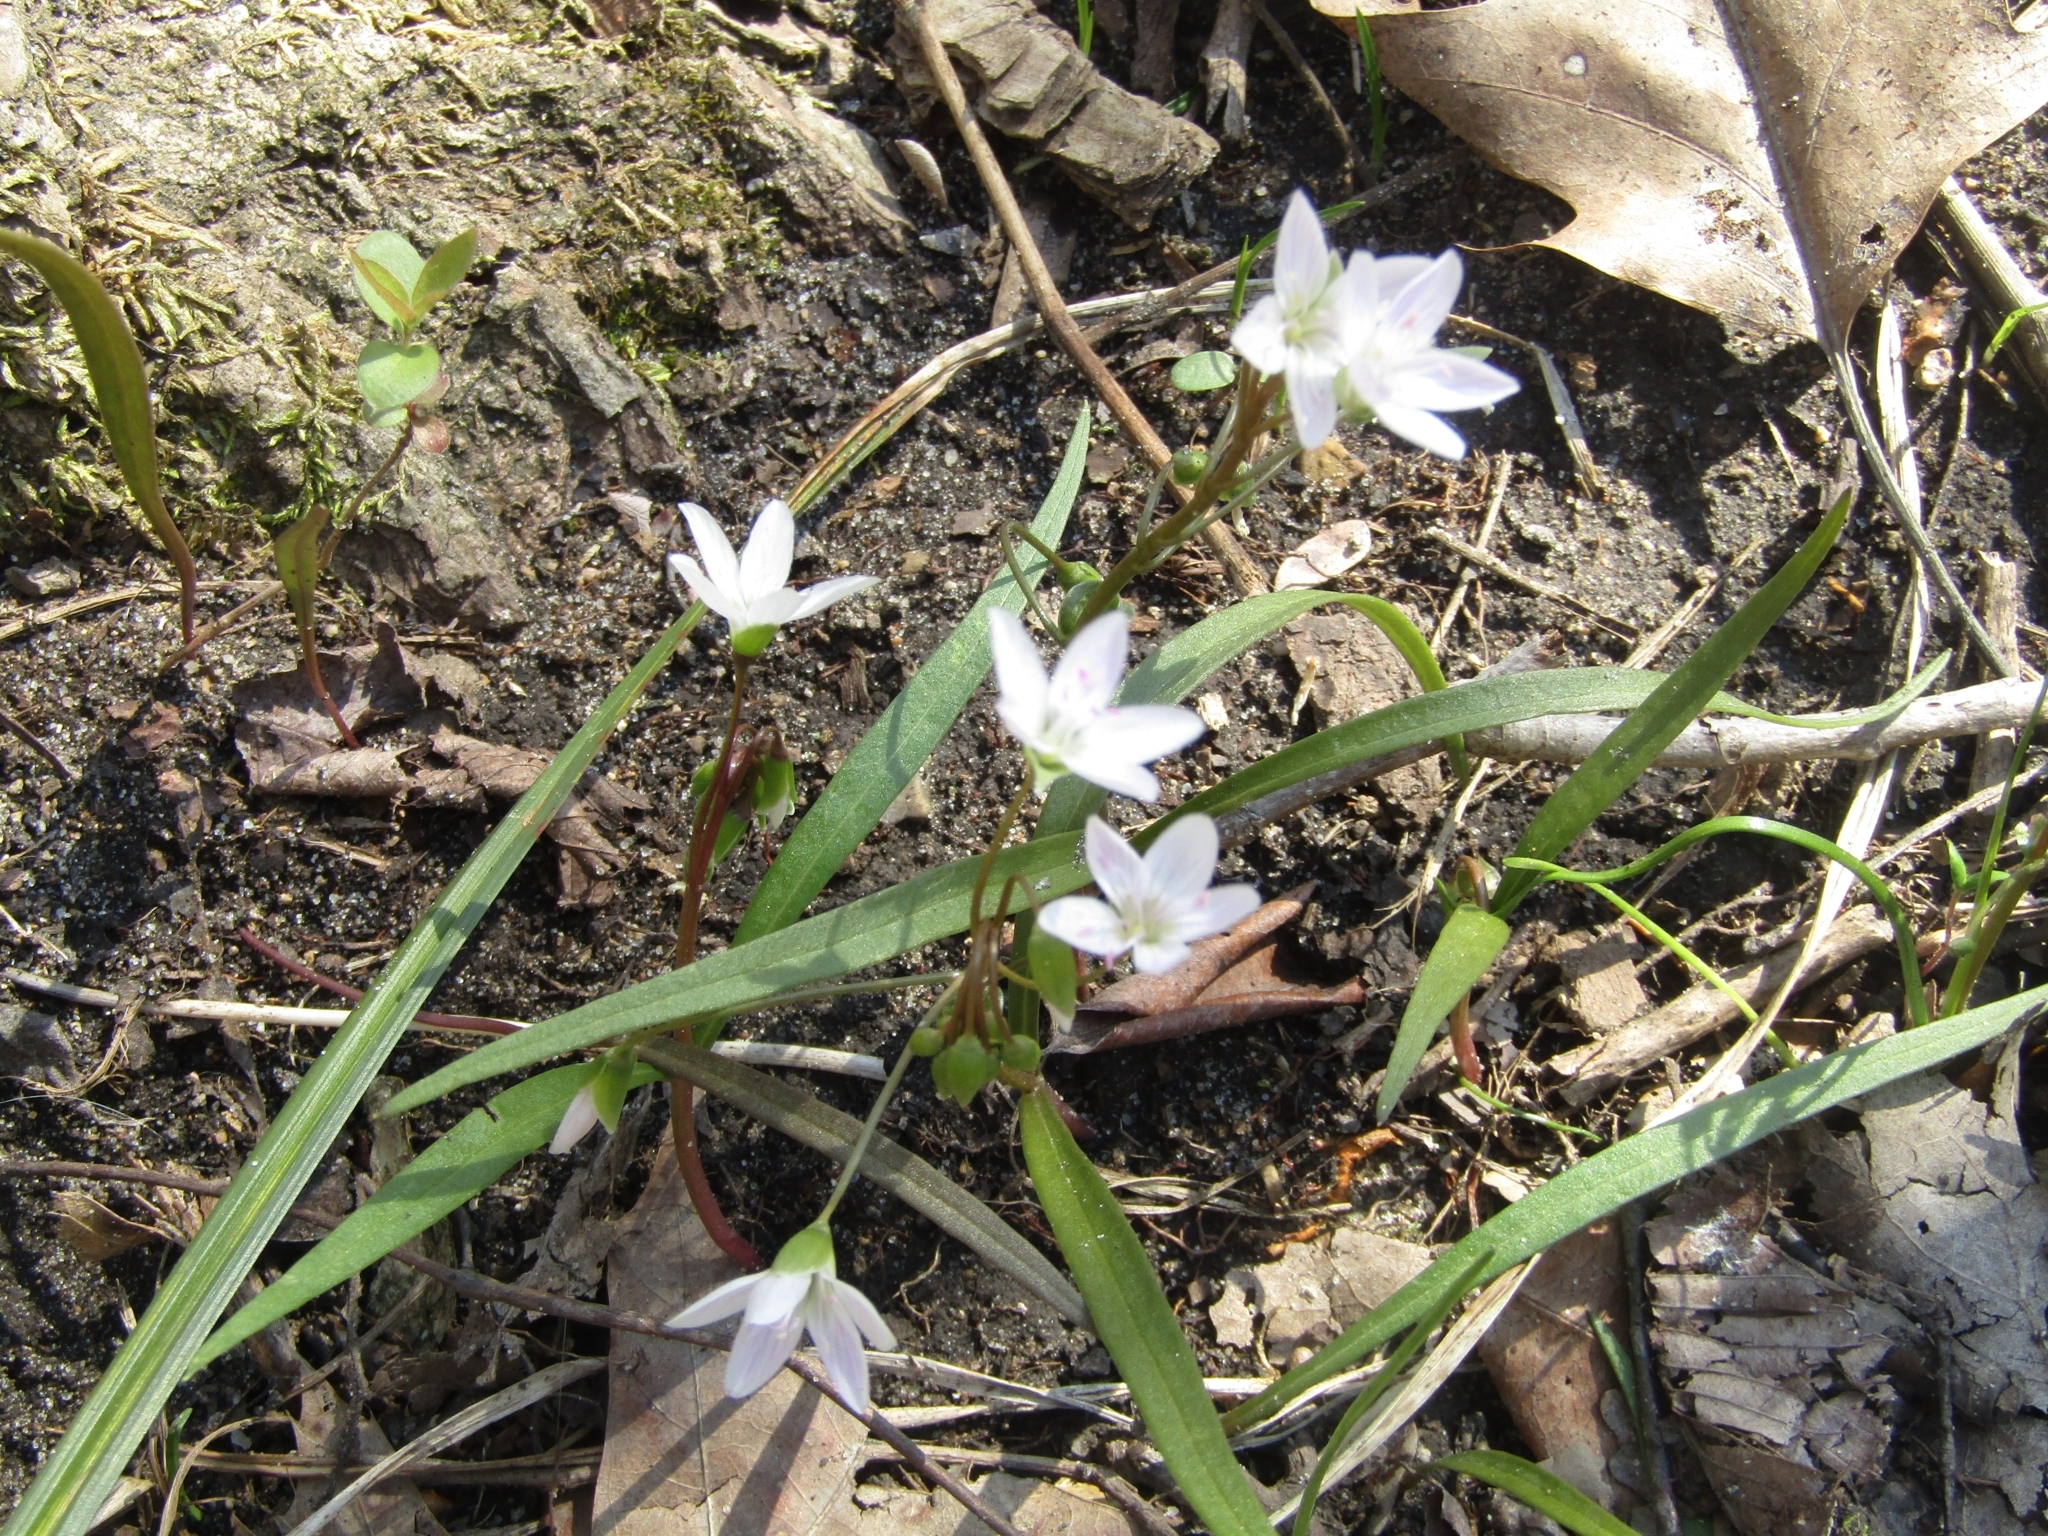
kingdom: Plantae
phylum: Tracheophyta
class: Magnoliopsida
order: Caryophyllales
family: Montiaceae
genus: Claytonia
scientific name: Claytonia virginica
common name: Virginia springbeauty
